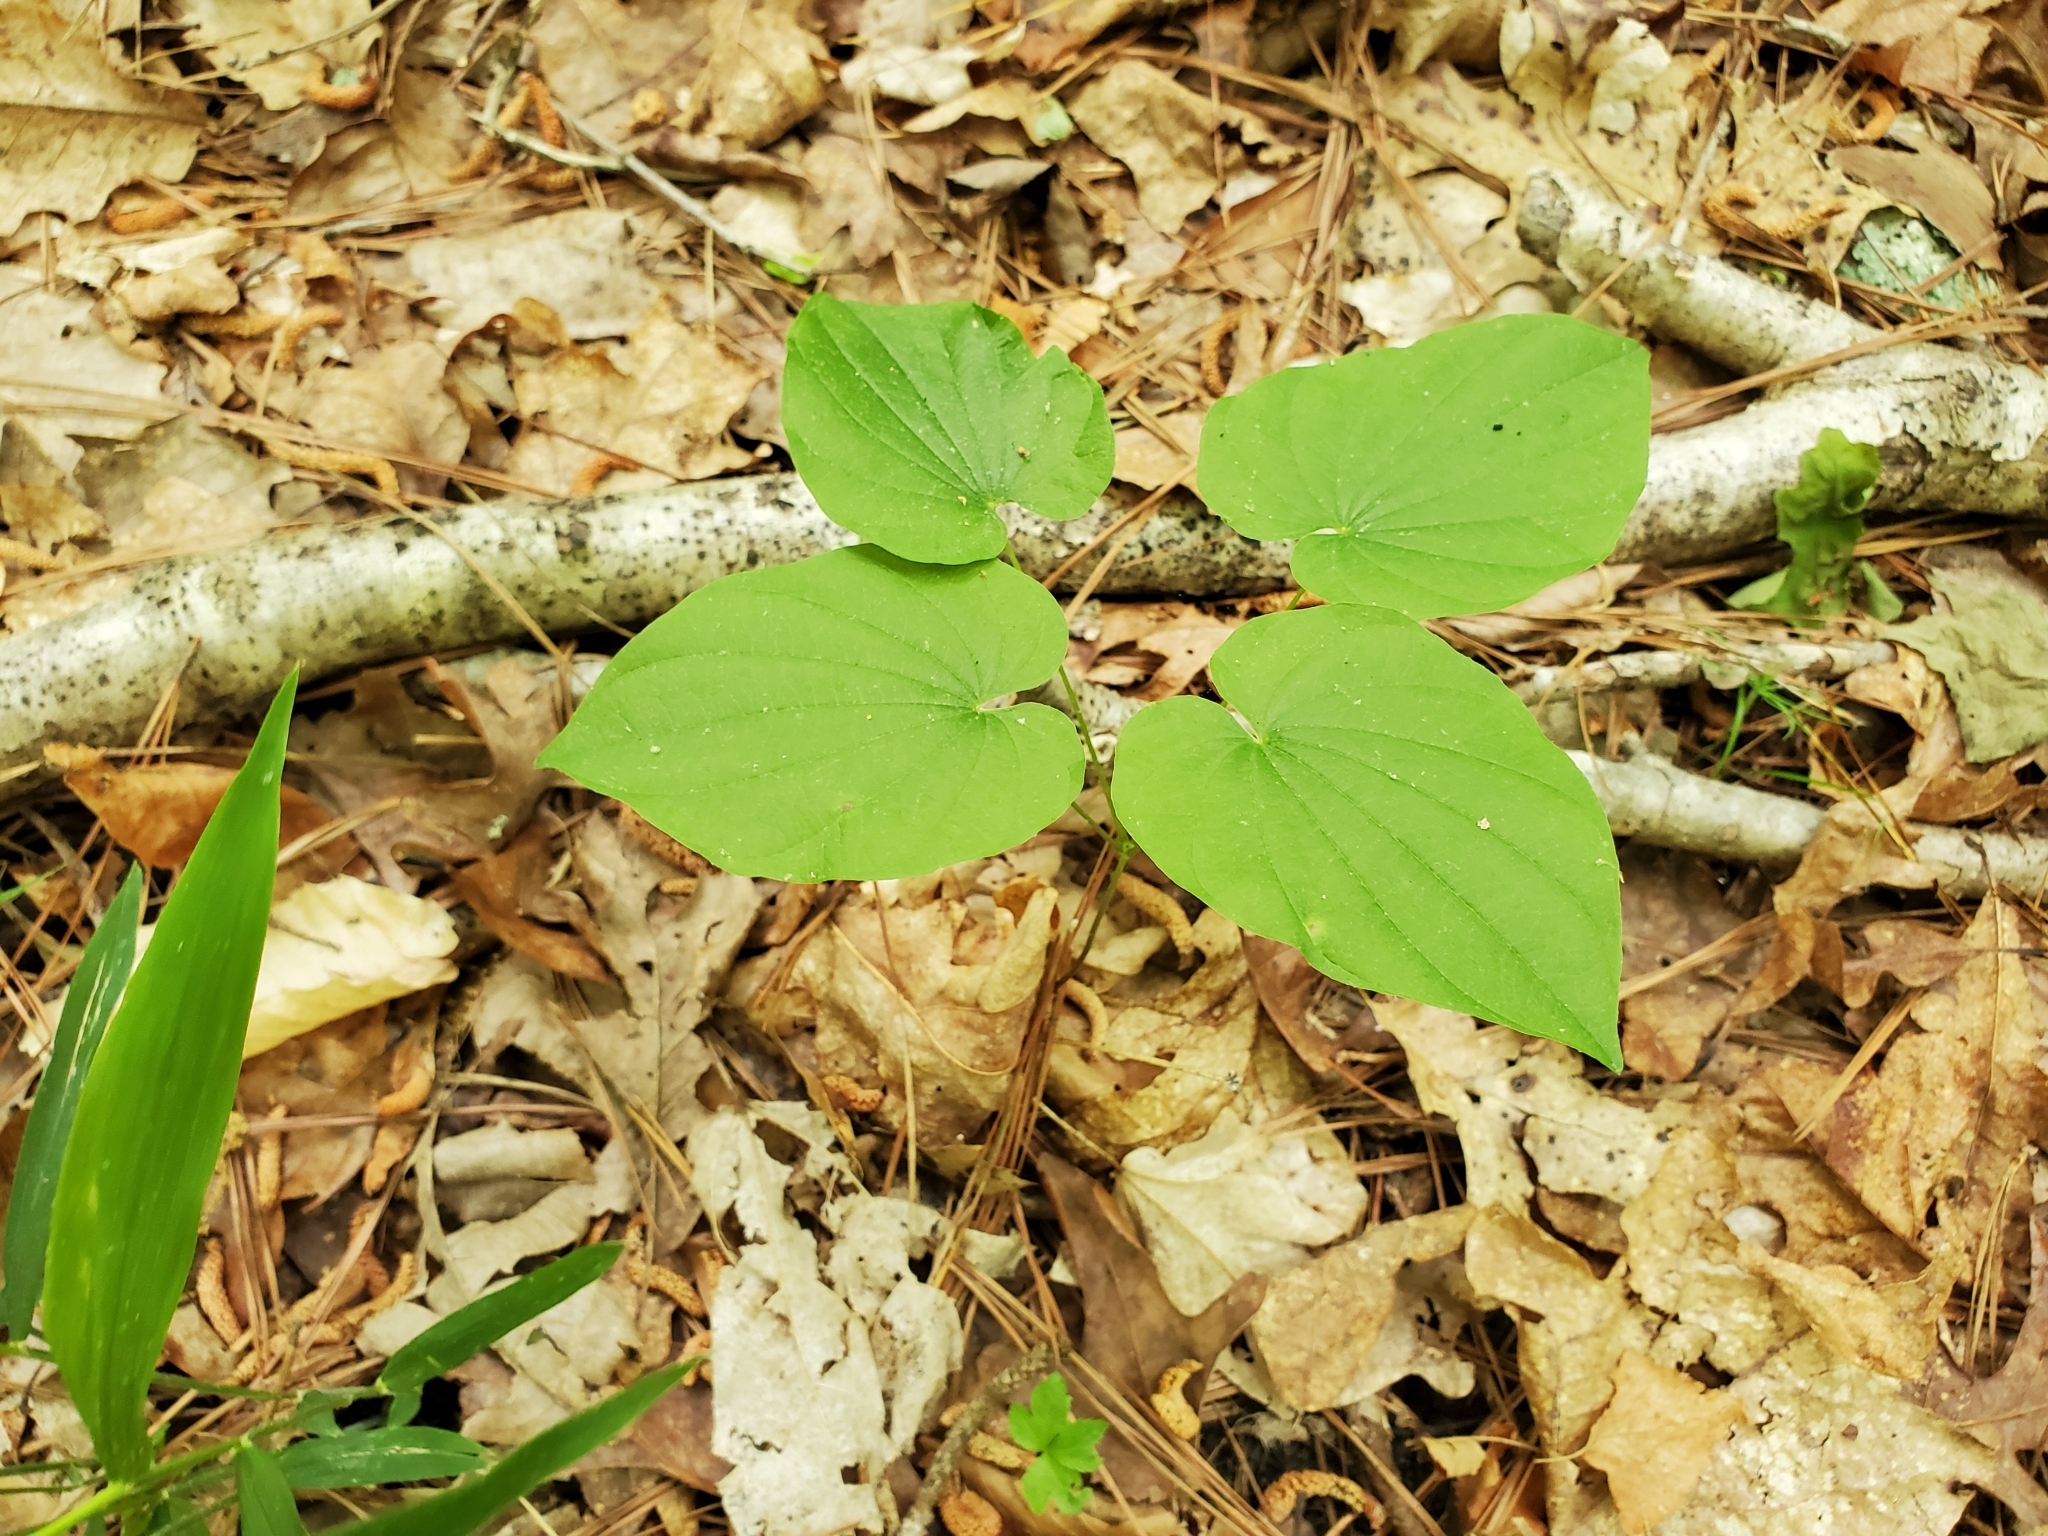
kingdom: Plantae
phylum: Tracheophyta
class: Liliopsida
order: Dioscoreales
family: Dioscoreaceae
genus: Dioscorea
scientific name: Dioscorea villosa
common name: Wild yam
